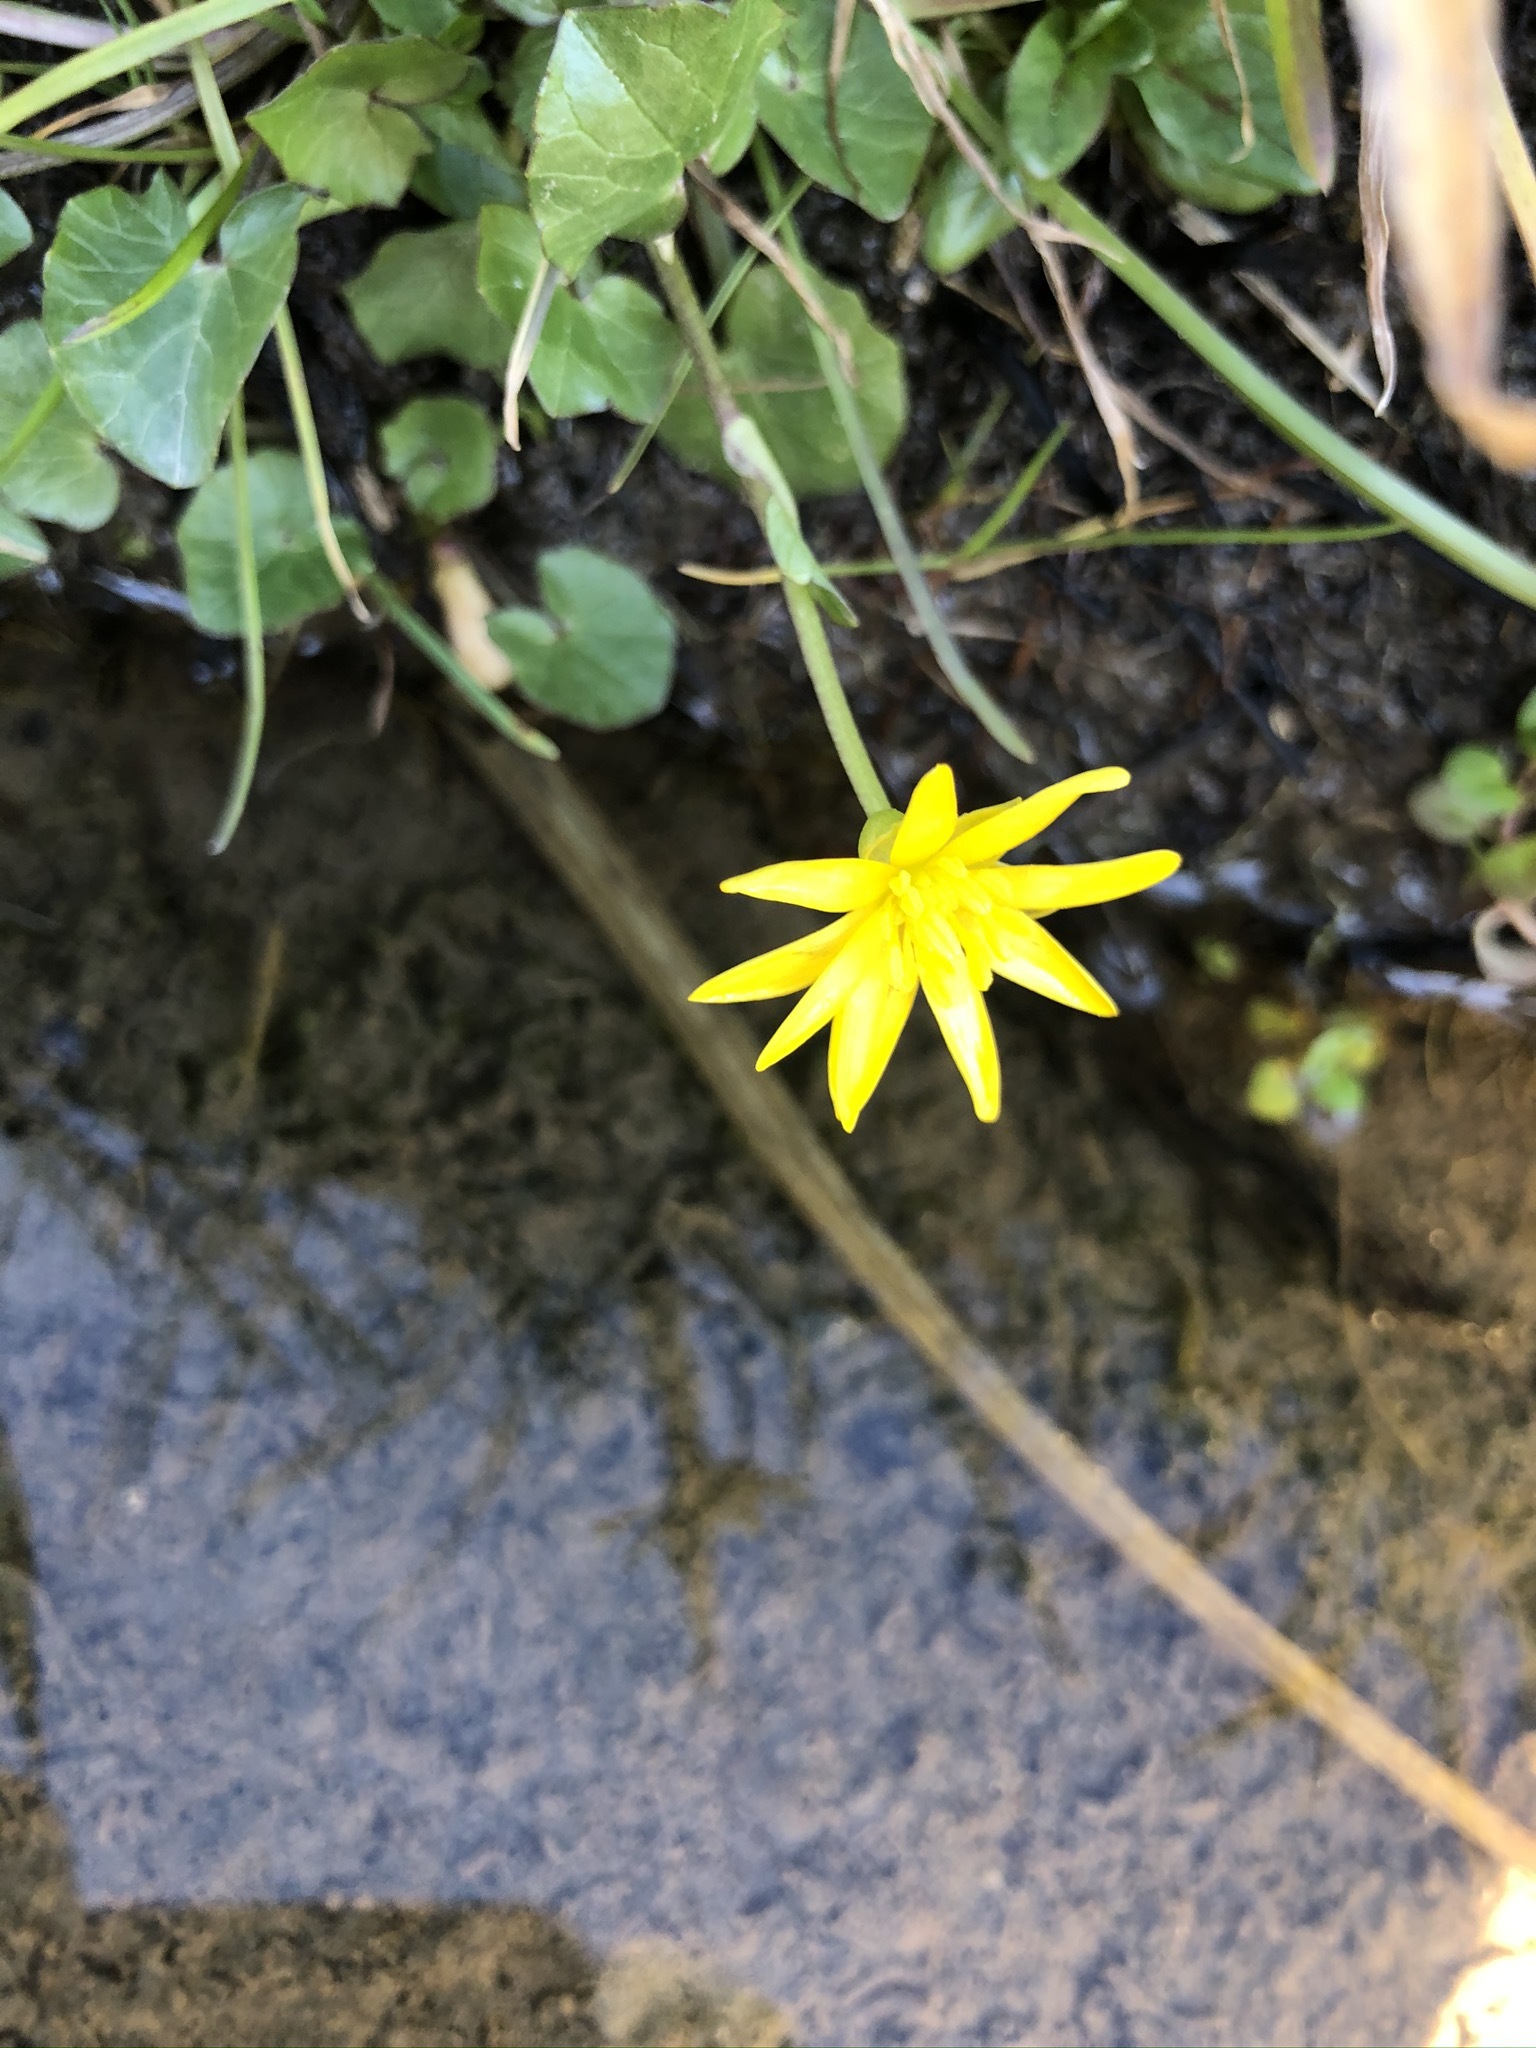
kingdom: Plantae
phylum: Tracheophyta
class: Magnoliopsida
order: Ranunculales
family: Ranunculaceae
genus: Ficaria
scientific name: Ficaria verna
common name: Lesser celandine
